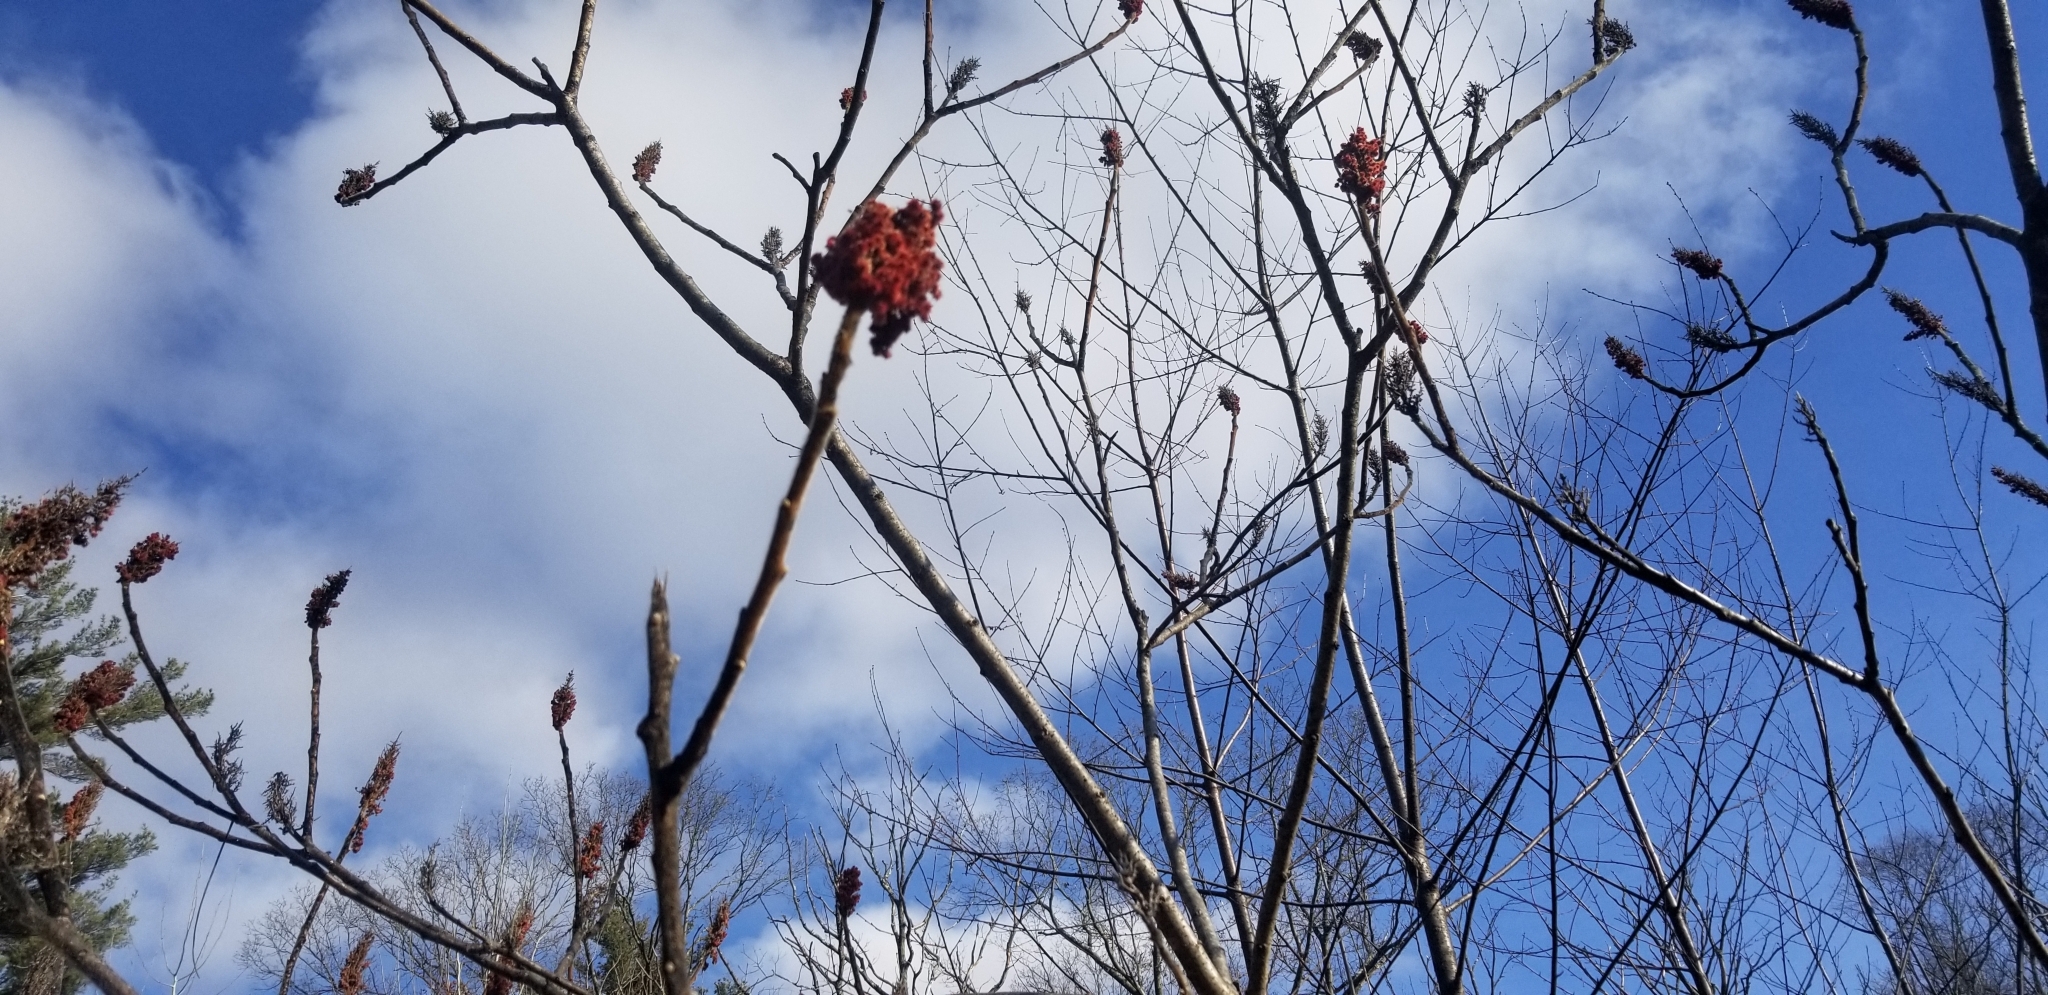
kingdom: Plantae
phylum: Tracheophyta
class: Magnoliopsida
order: Sapindales
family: Anacardiaceae
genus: Rhus
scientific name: Rhus typhina
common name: Staghorn sumac
